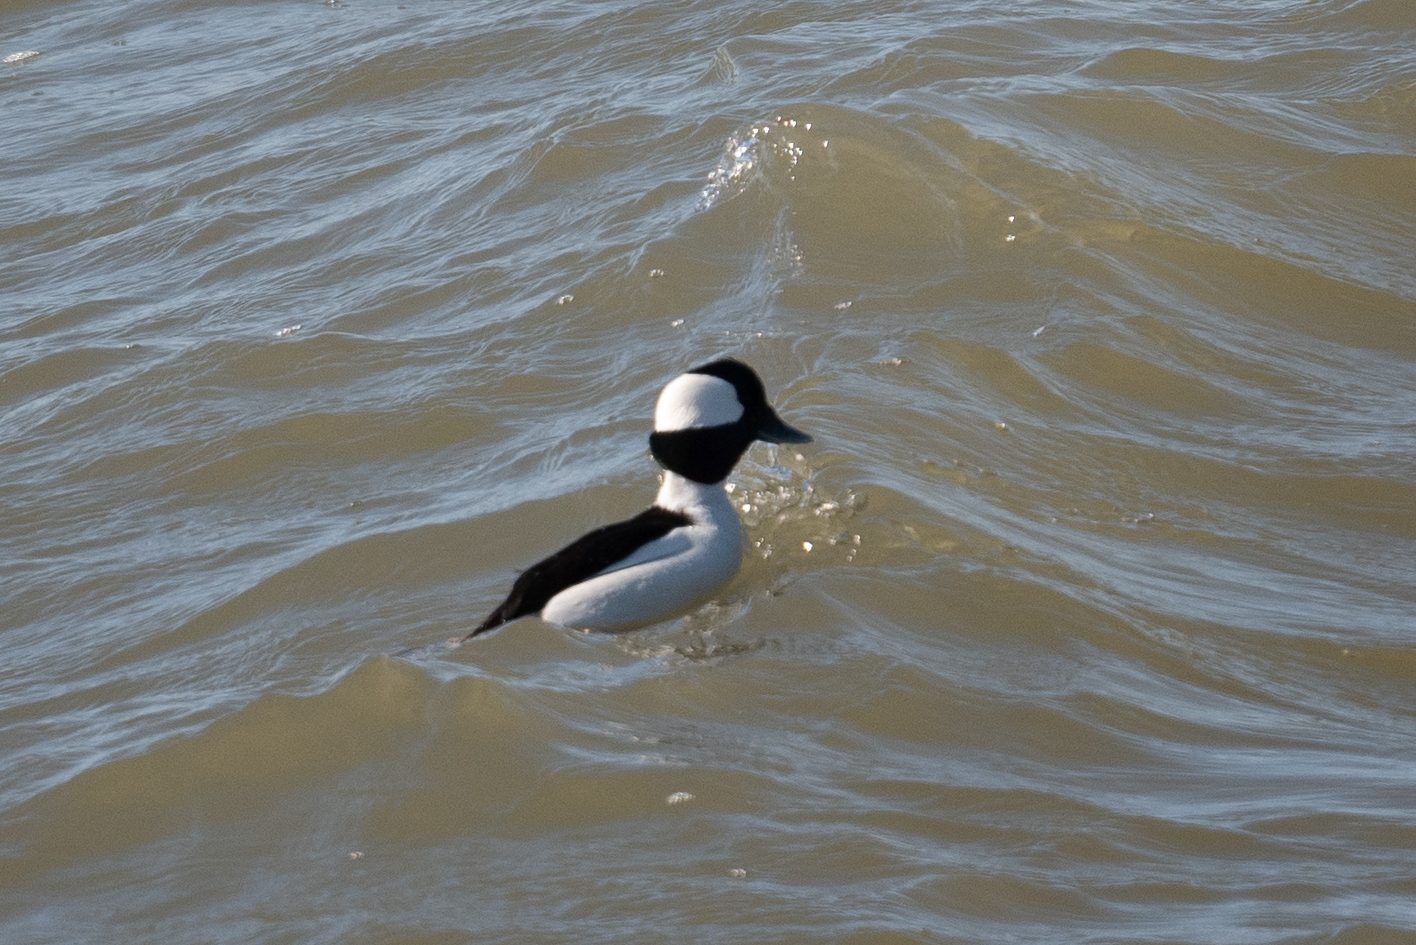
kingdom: Animalia
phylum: Chordata
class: Aves
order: Anseriformes
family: Anatidae
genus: Bucephala
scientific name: Bucephala albeola
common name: Bufflehead
